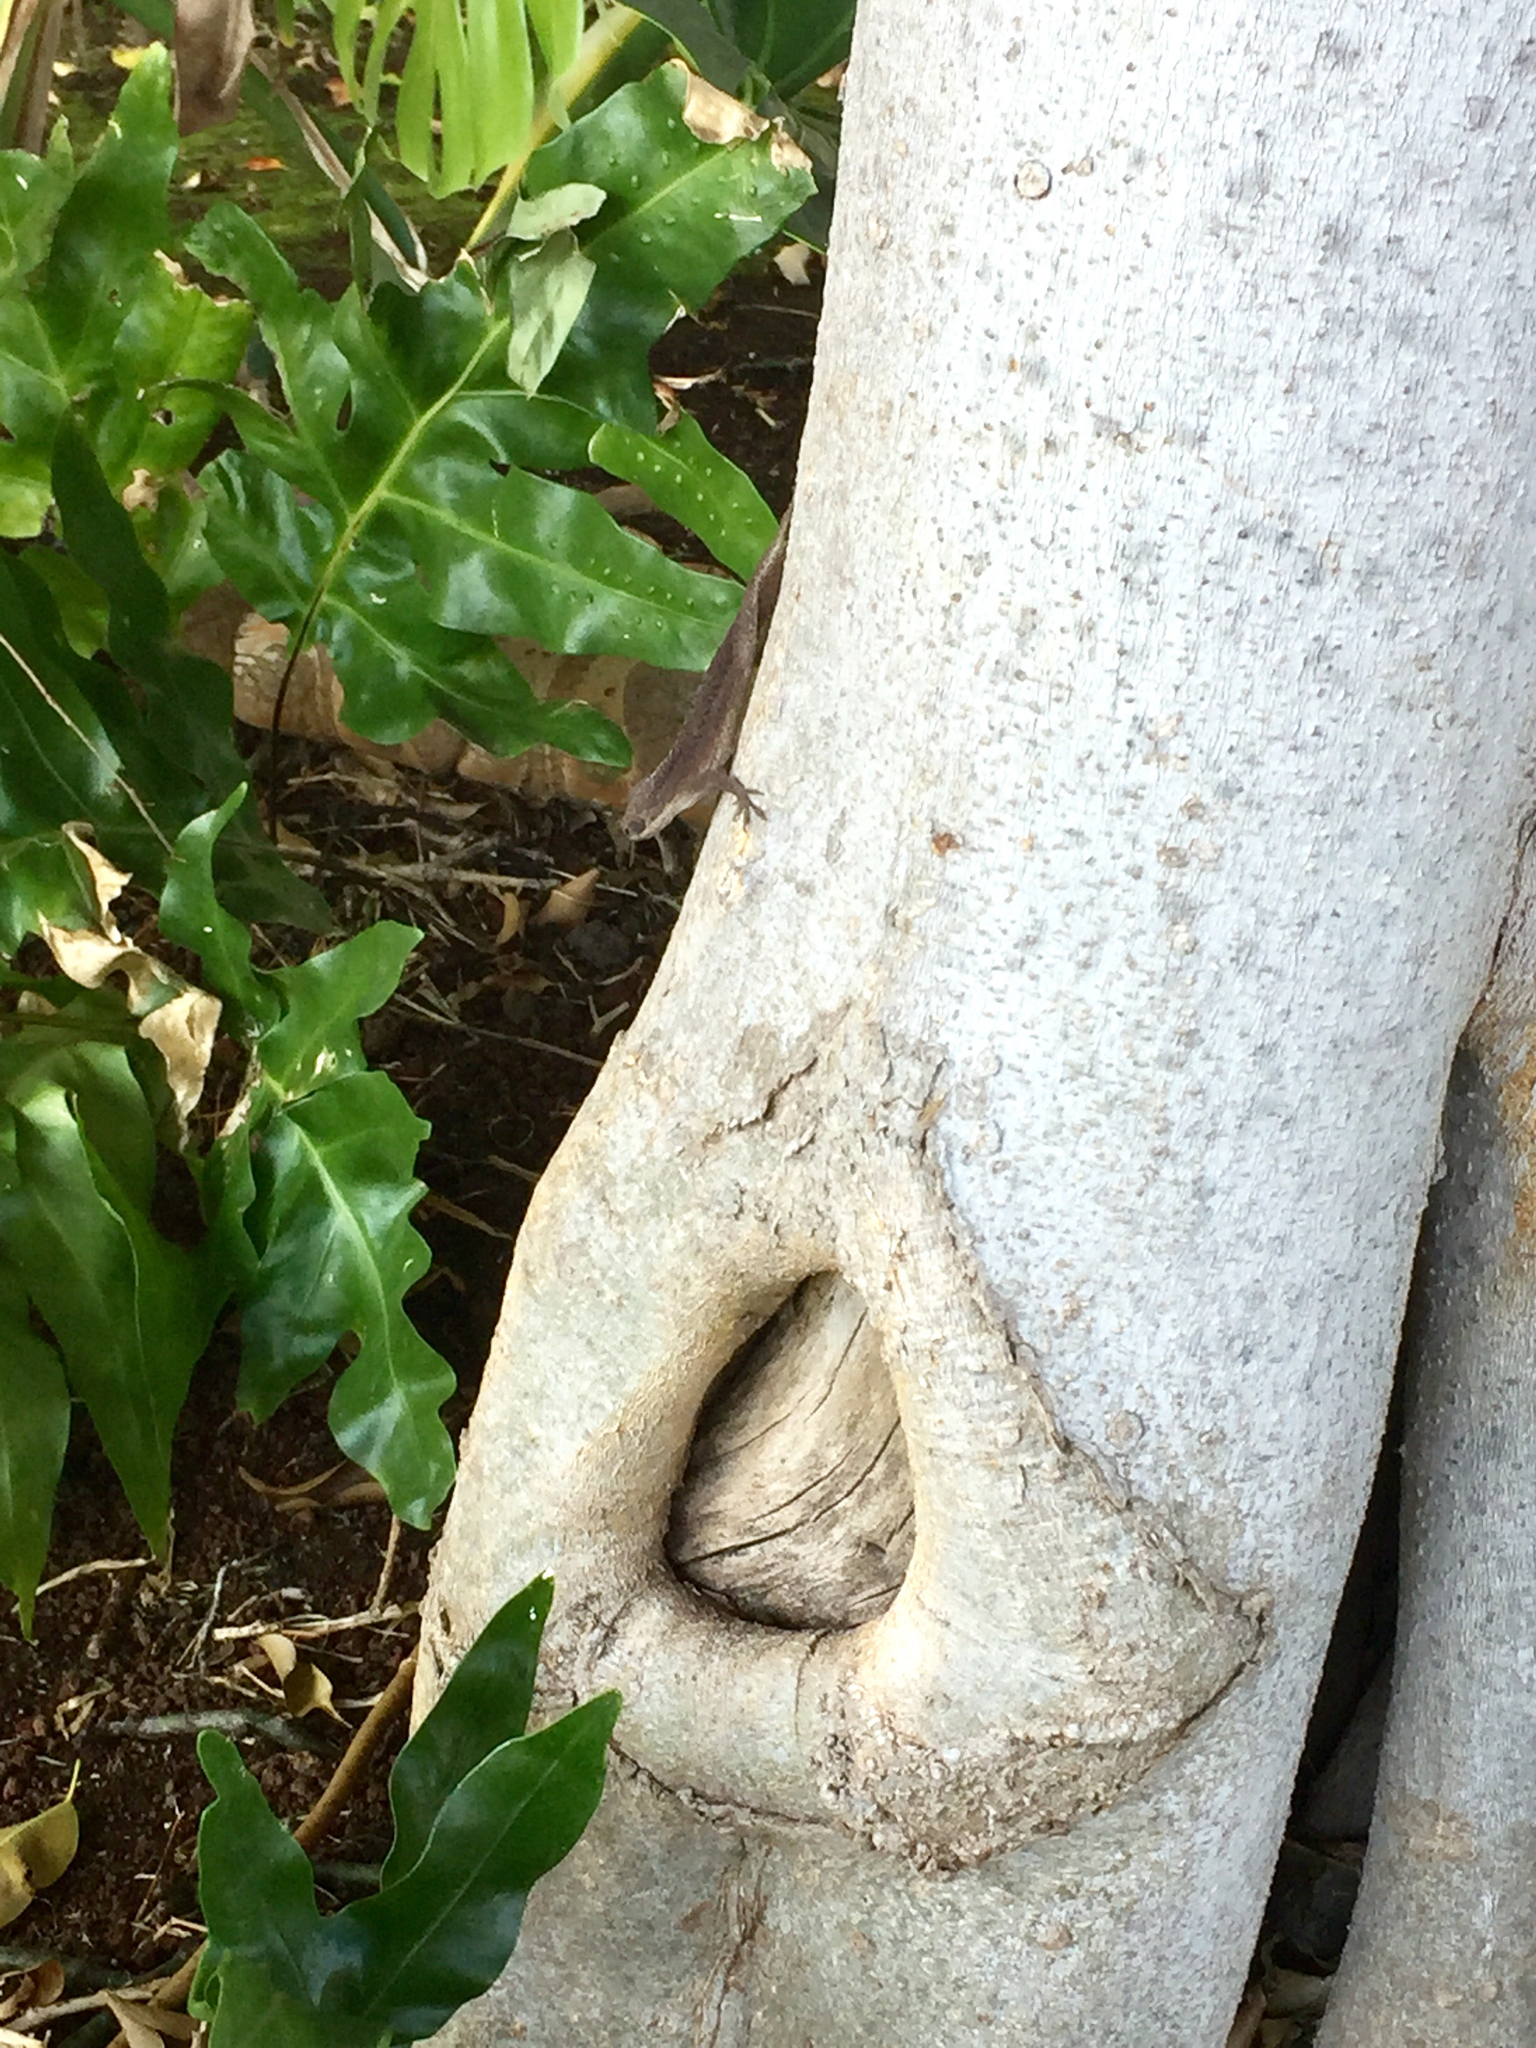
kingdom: Animalia
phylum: Chordata
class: Squamata
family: Dactyloidae
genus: Anolis
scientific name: Anolis carolinensis
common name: Green anole
